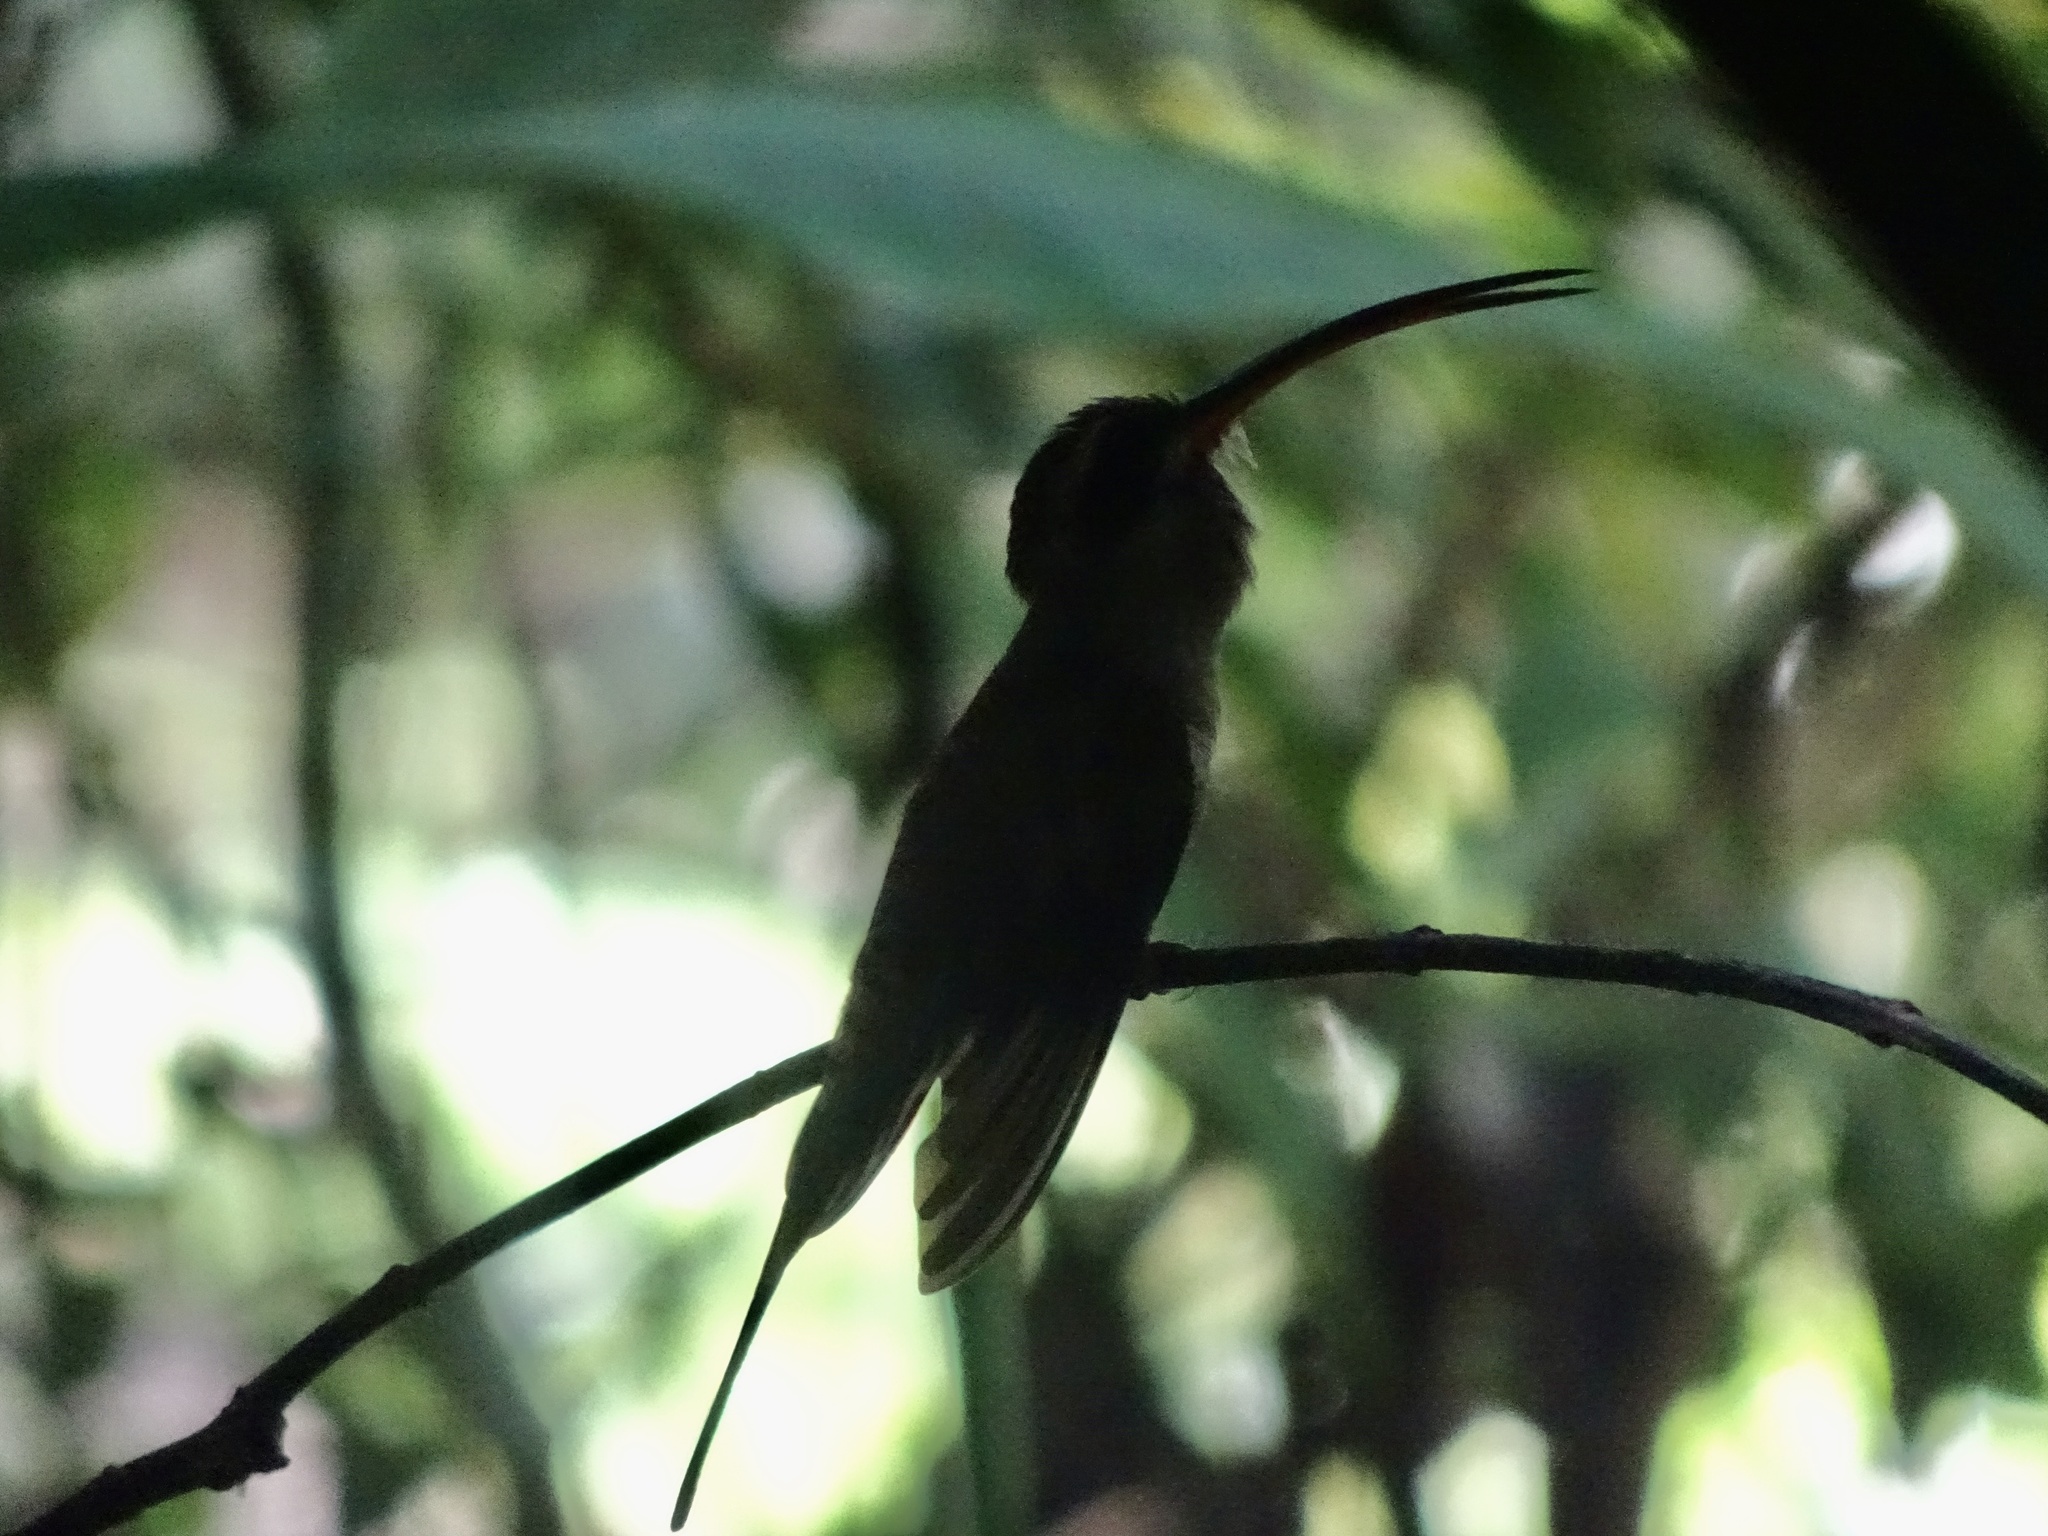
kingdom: Animalia
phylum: Chordata
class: Aves
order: Apodiformes
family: Trochilidae
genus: Phaethornis
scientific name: Phaethornis longirostris
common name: Long-billed hermit
